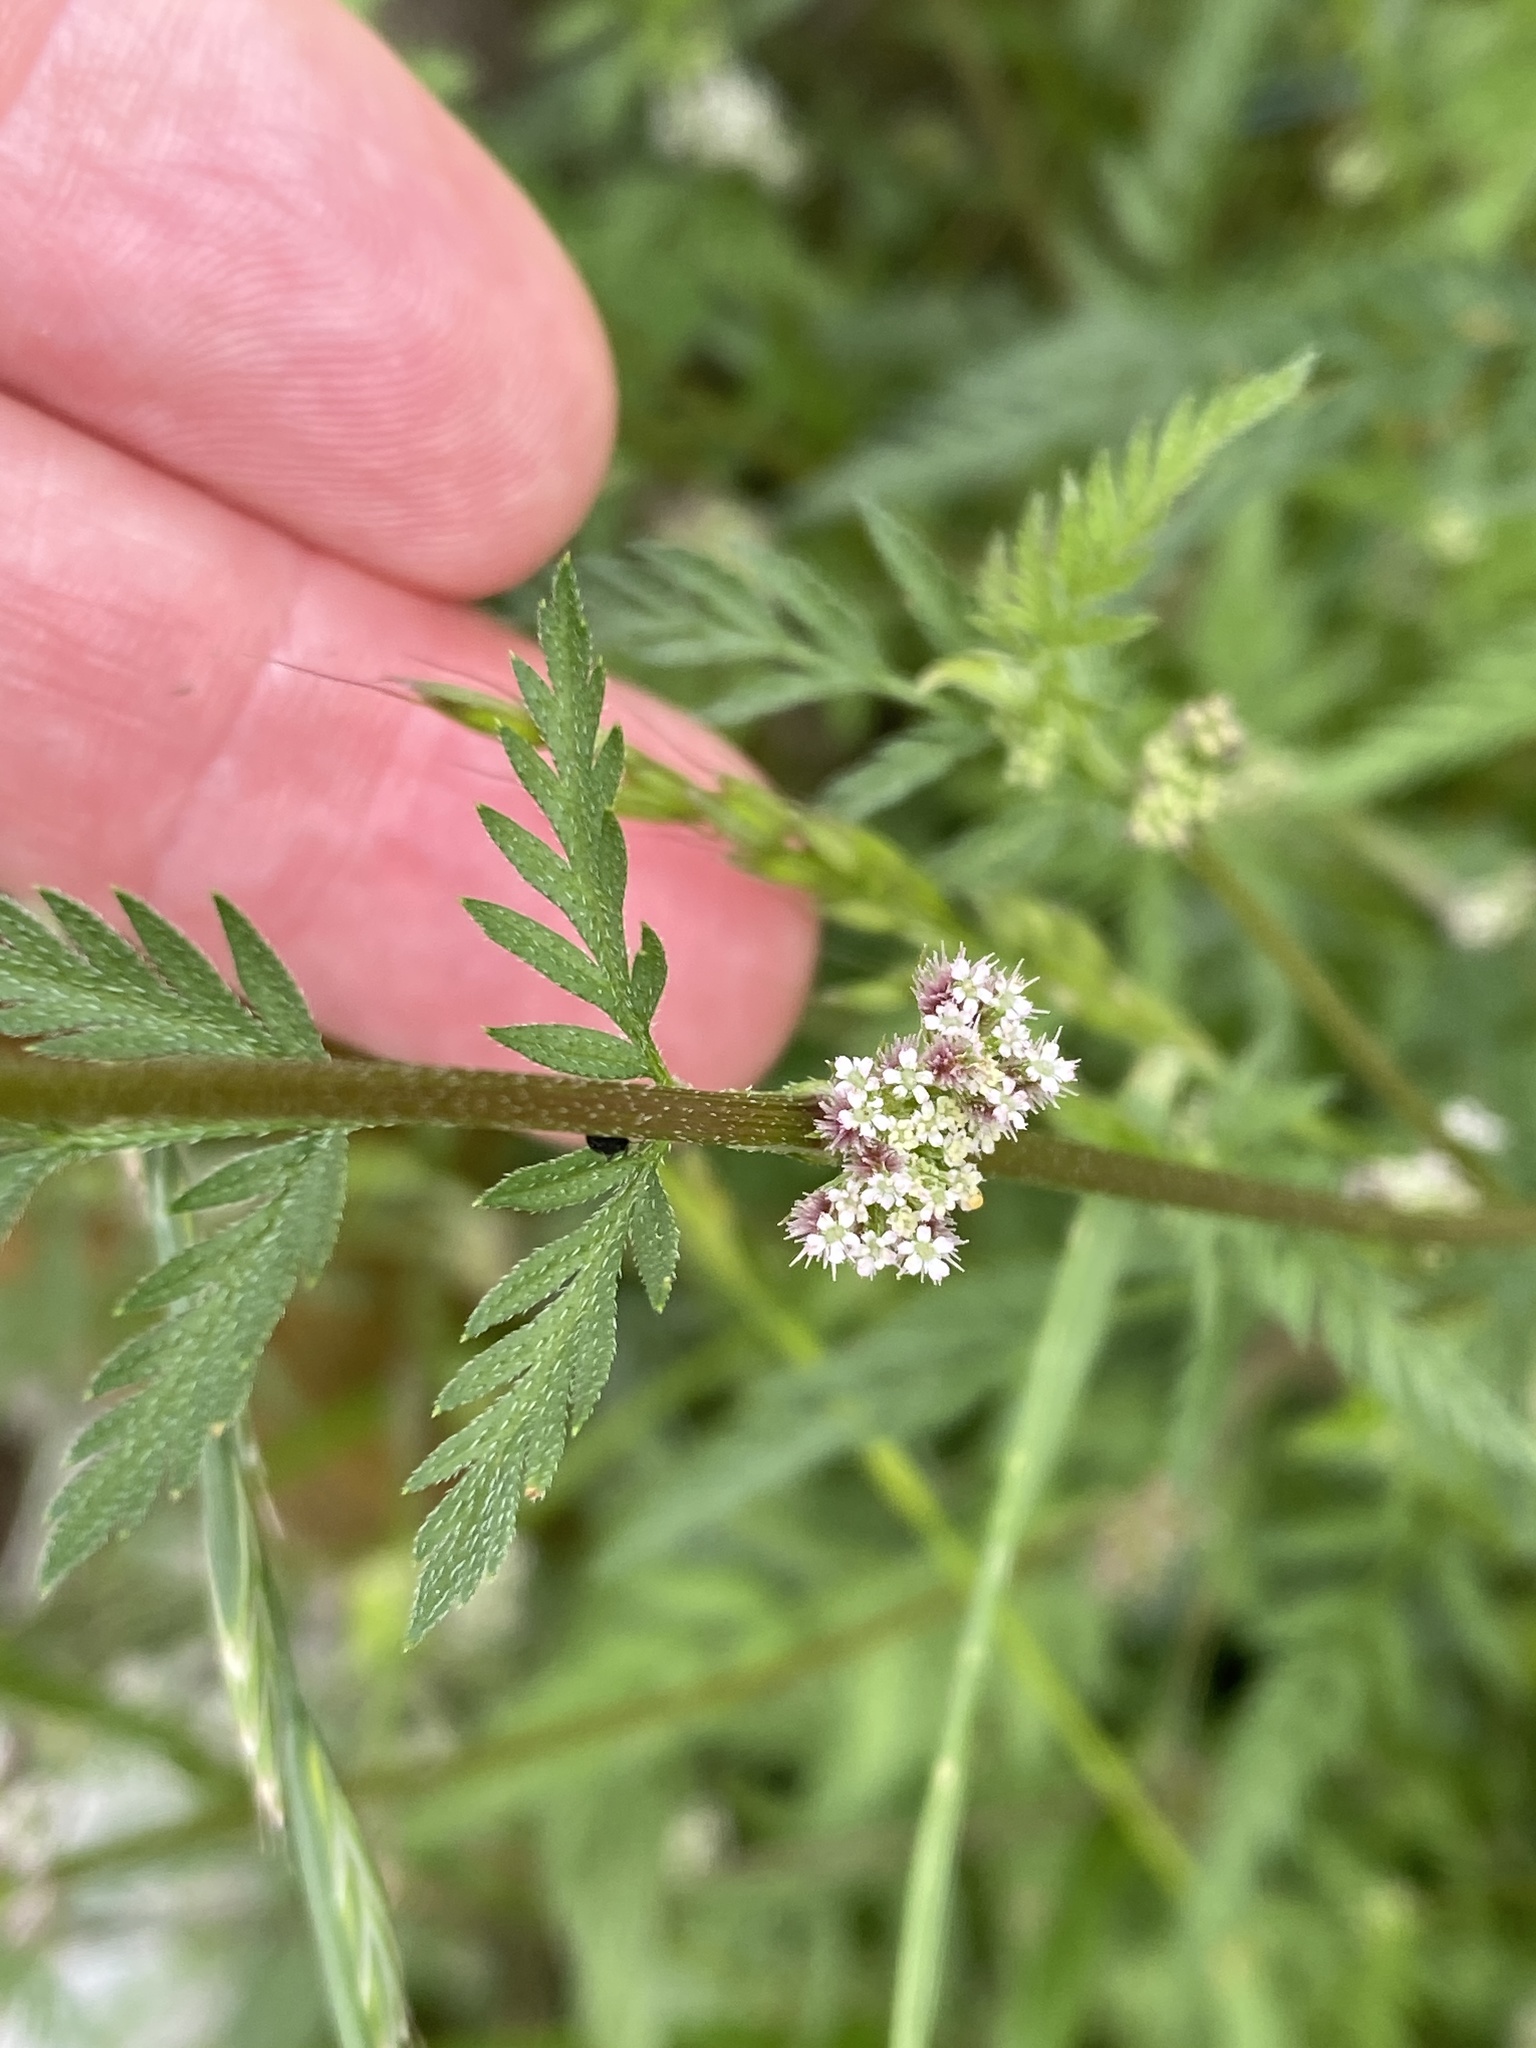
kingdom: Plantae
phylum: Tracheophyta
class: Magnoliopsida
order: Apiales
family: Apiaceae
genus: Torilis
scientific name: Torilis nodosa
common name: Knotted hedge-parsley
